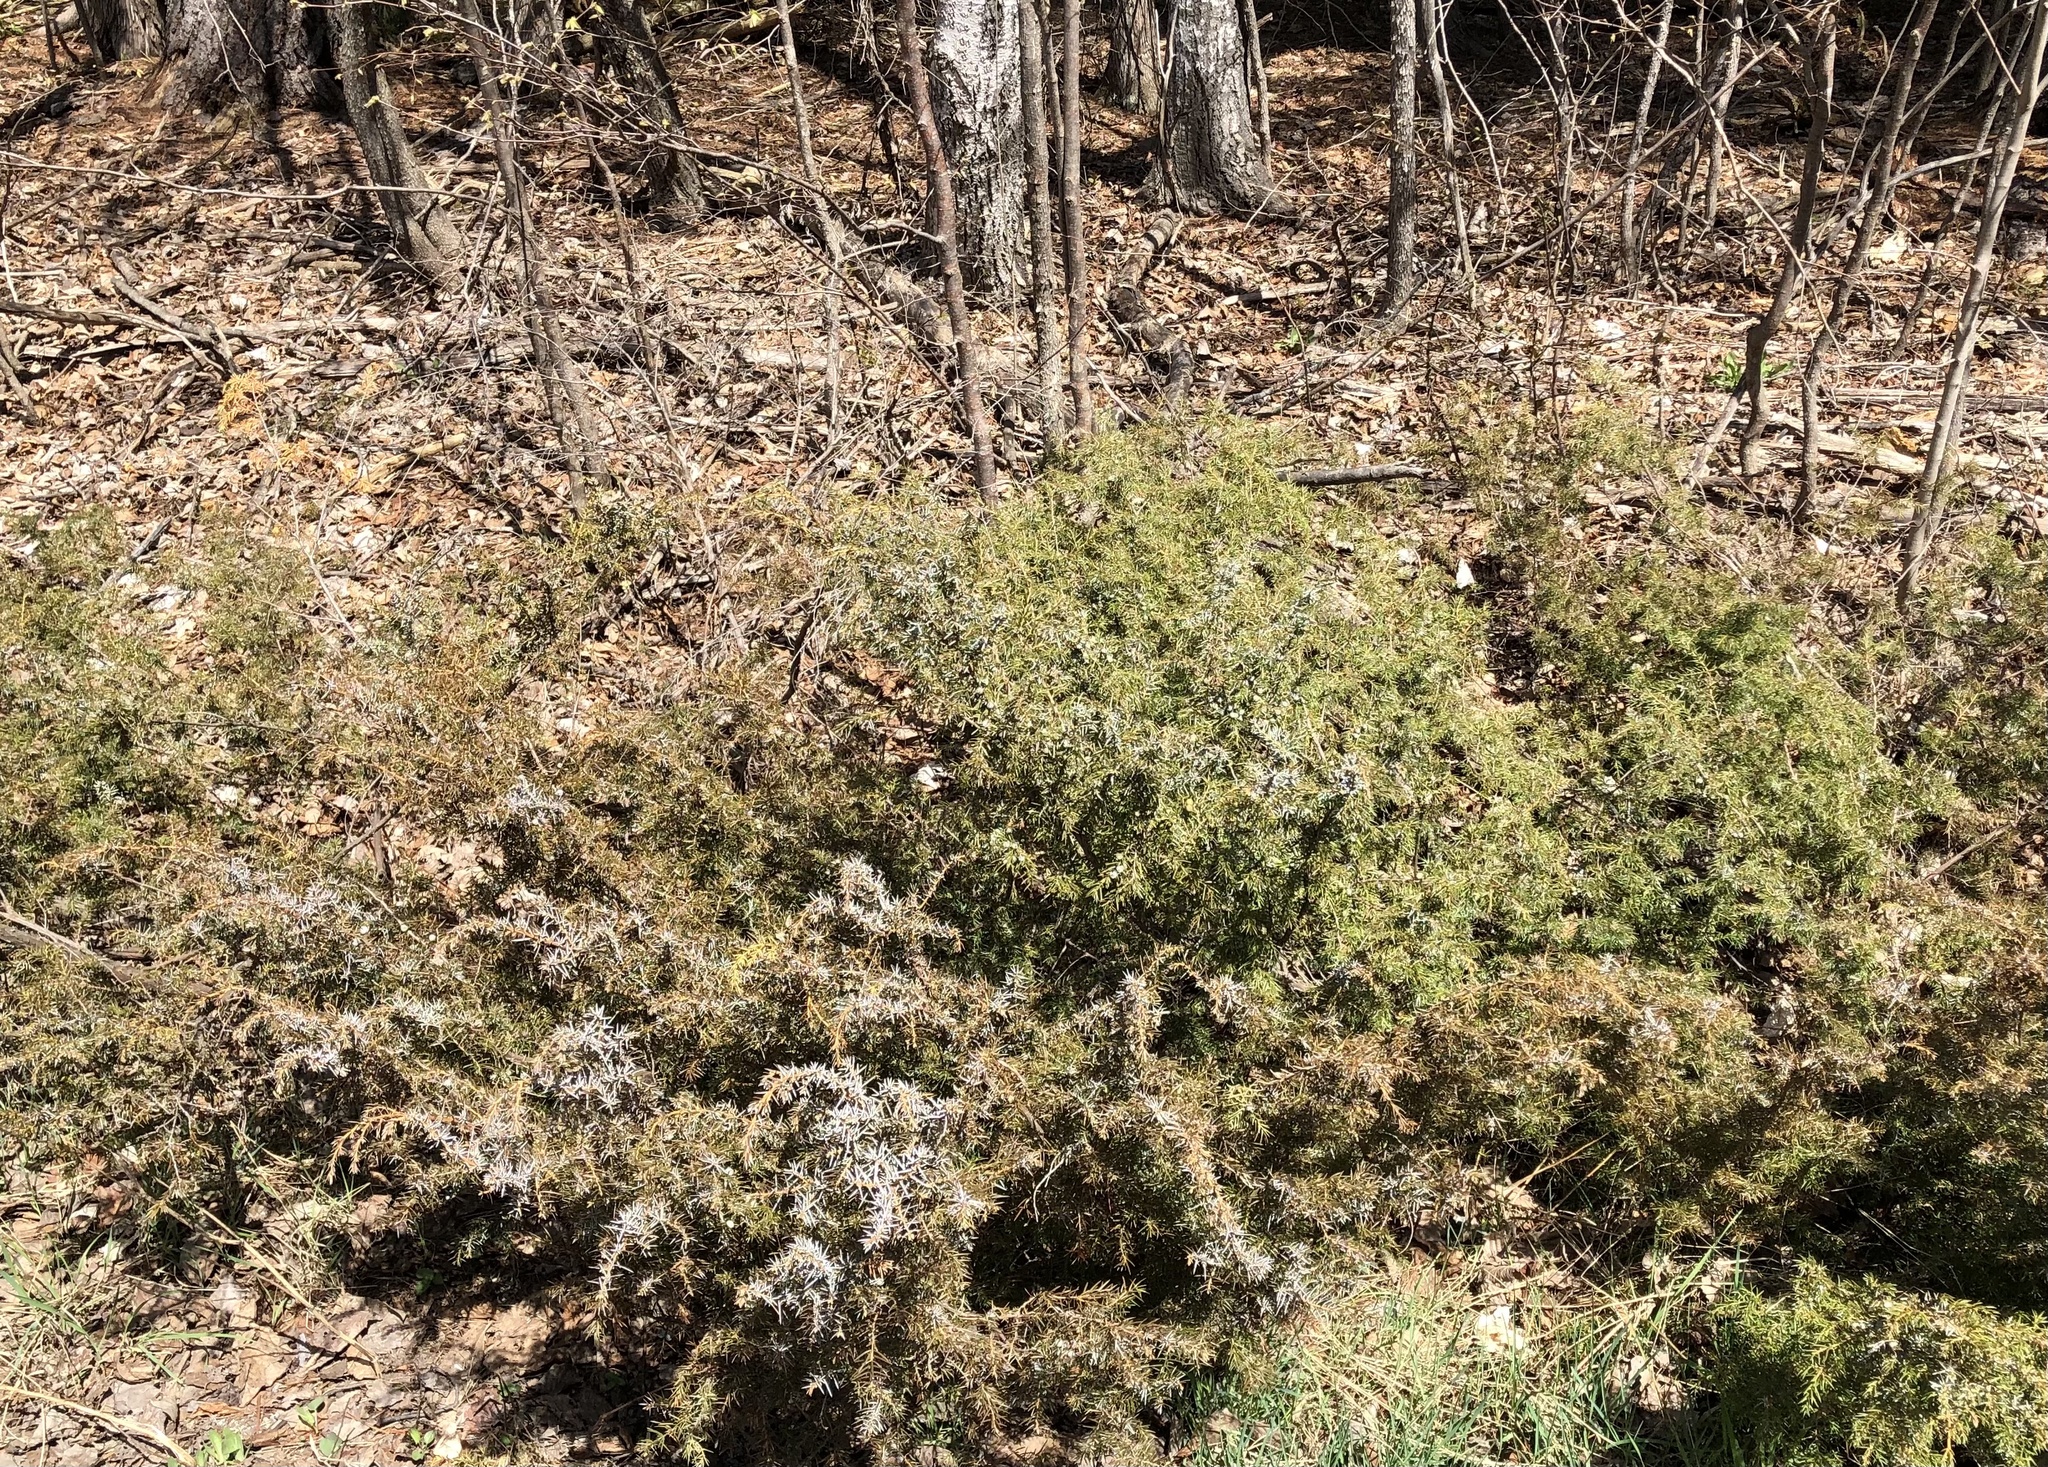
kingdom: Plantae
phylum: Tracheophyta
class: Pinopsida
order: Pinales
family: Cupressaceae
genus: Juniperus
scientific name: Juniperus communis
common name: Common juniper
